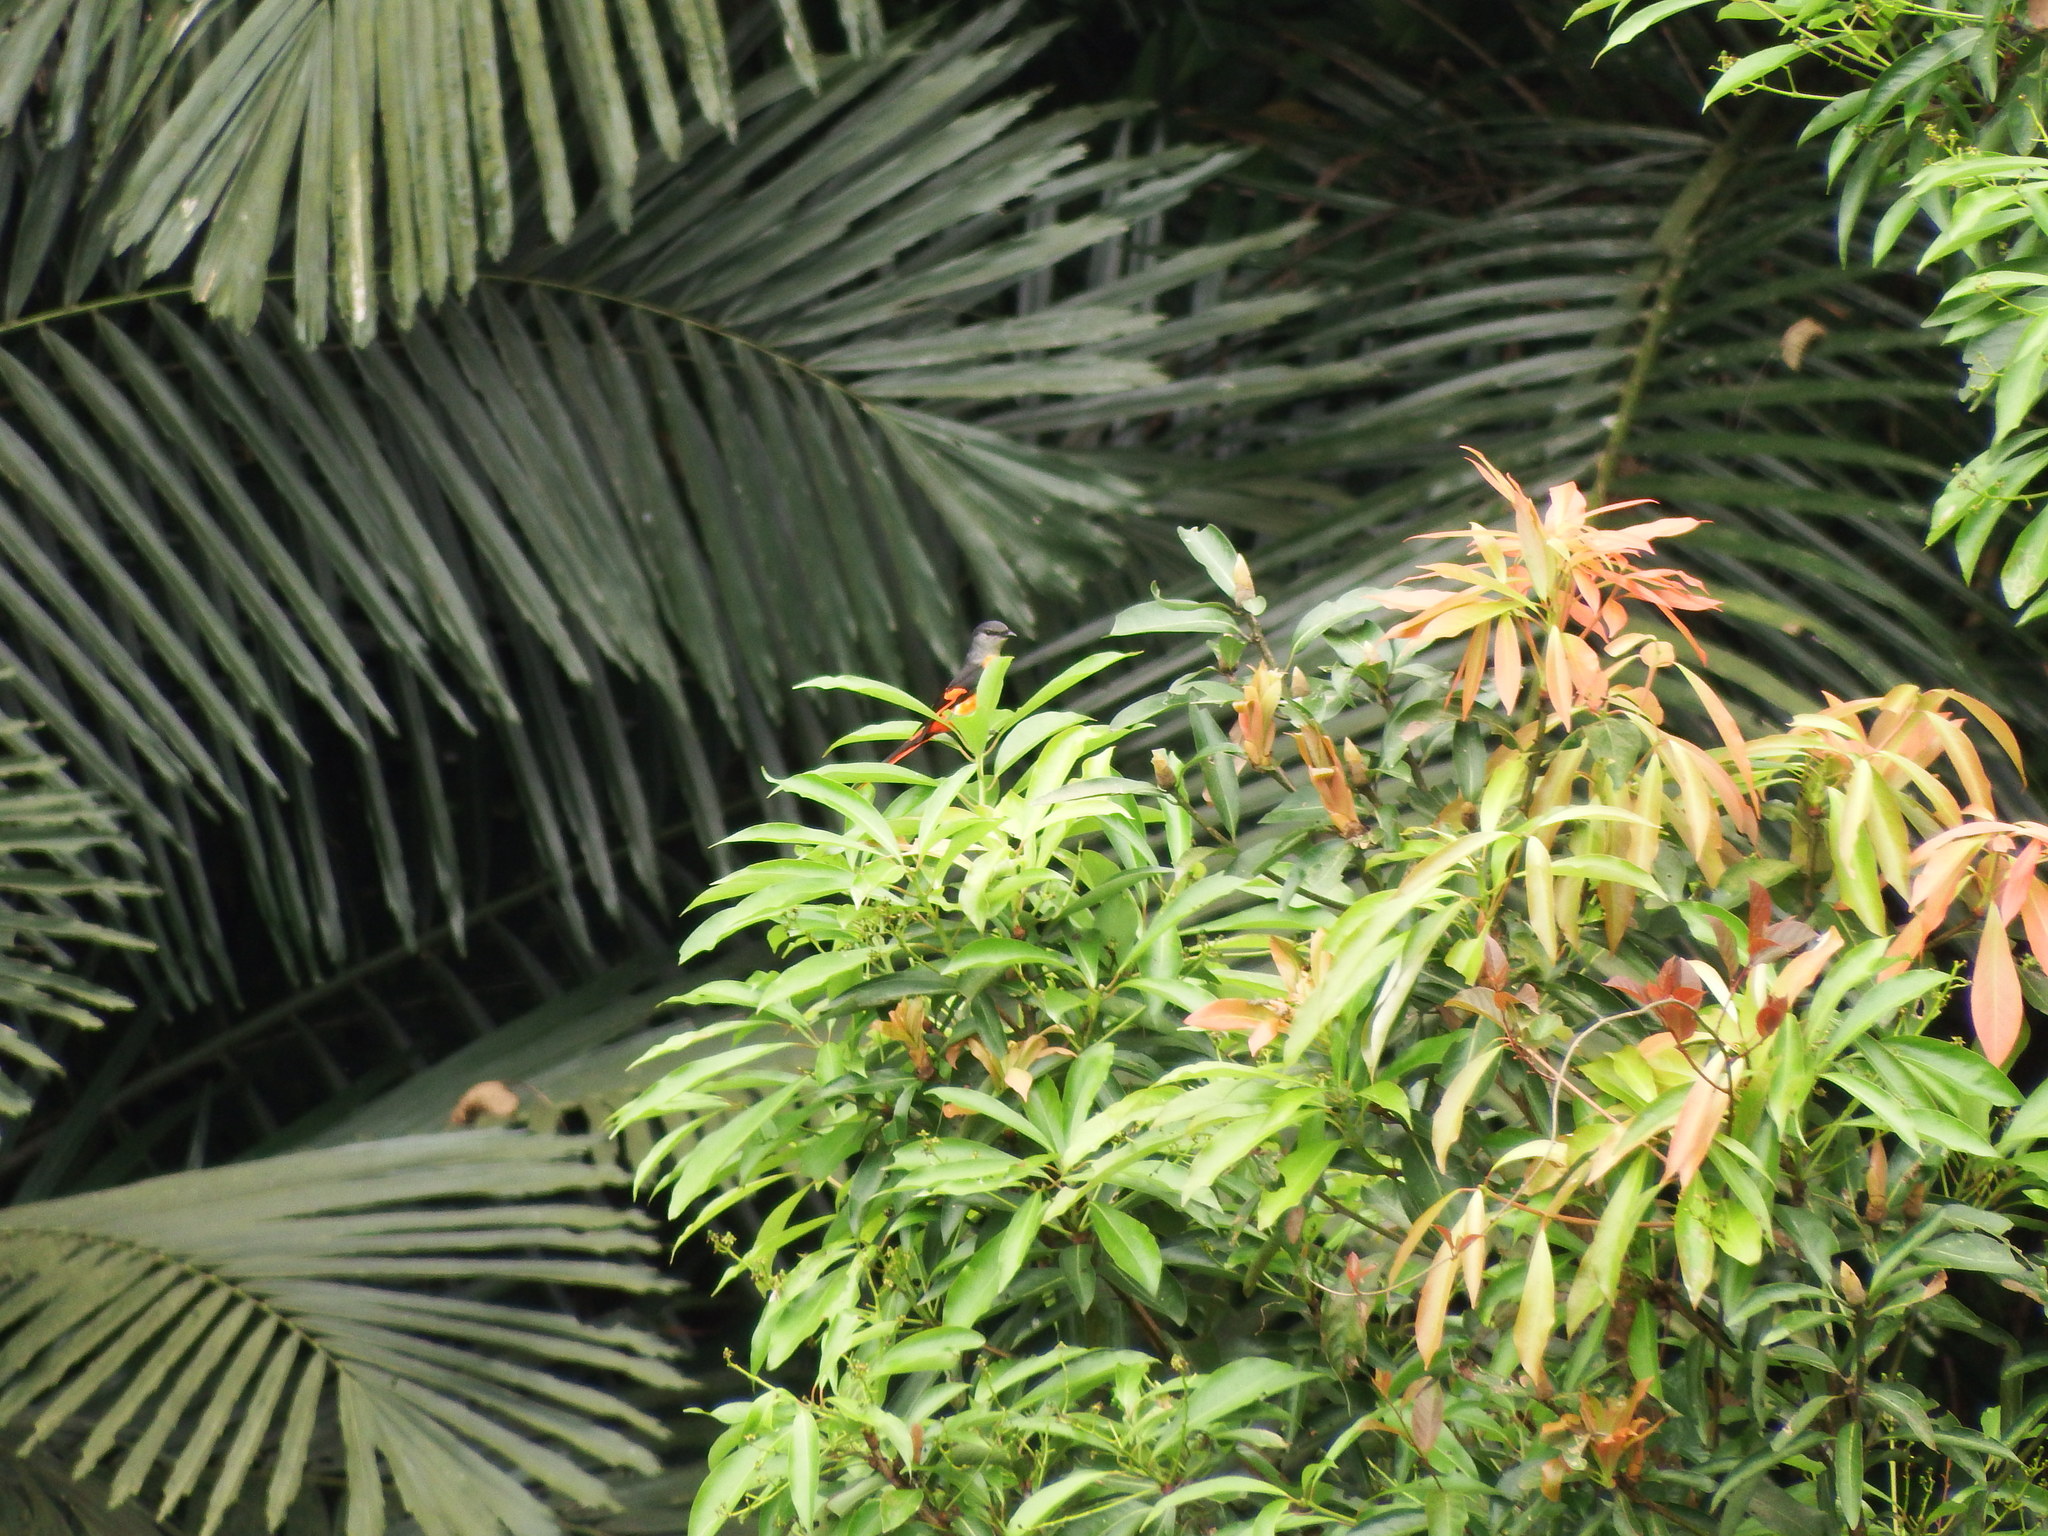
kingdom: Animalia
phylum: Chordata
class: Aves
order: Passeriformes
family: Campephagidae
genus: Pericrocotus
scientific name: Pericrocotus solaris
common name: Grey-chinned minivet
